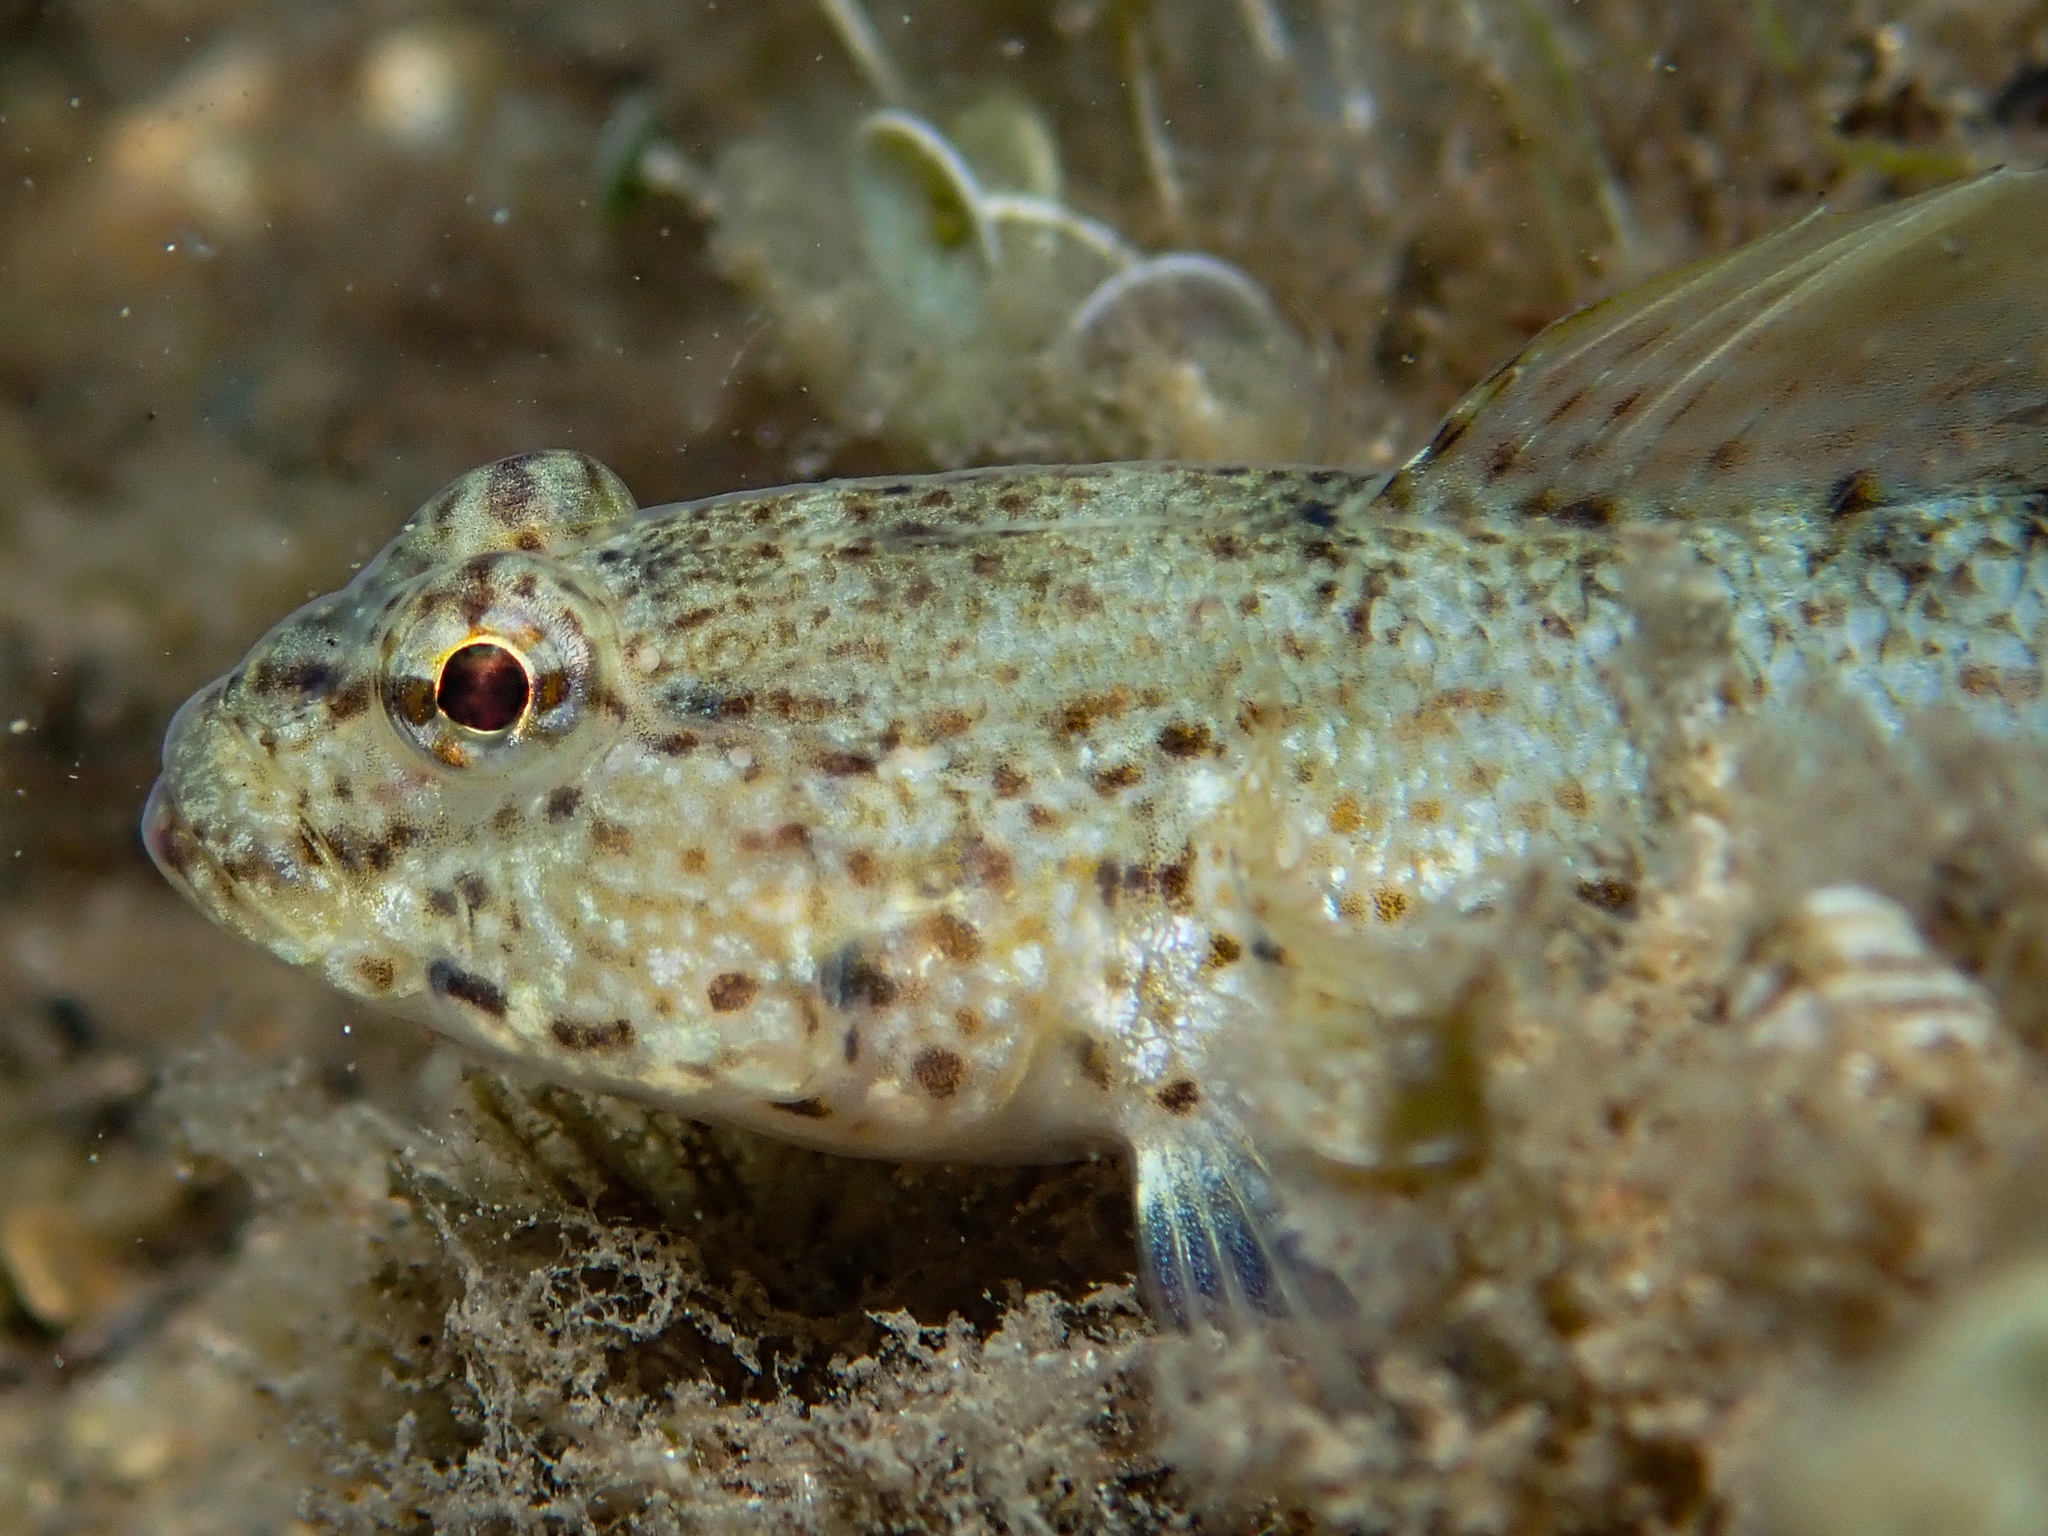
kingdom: Animalia
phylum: Chordata
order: Perciformes
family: Gobiidae
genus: Gobius
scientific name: Gobius incognitus
